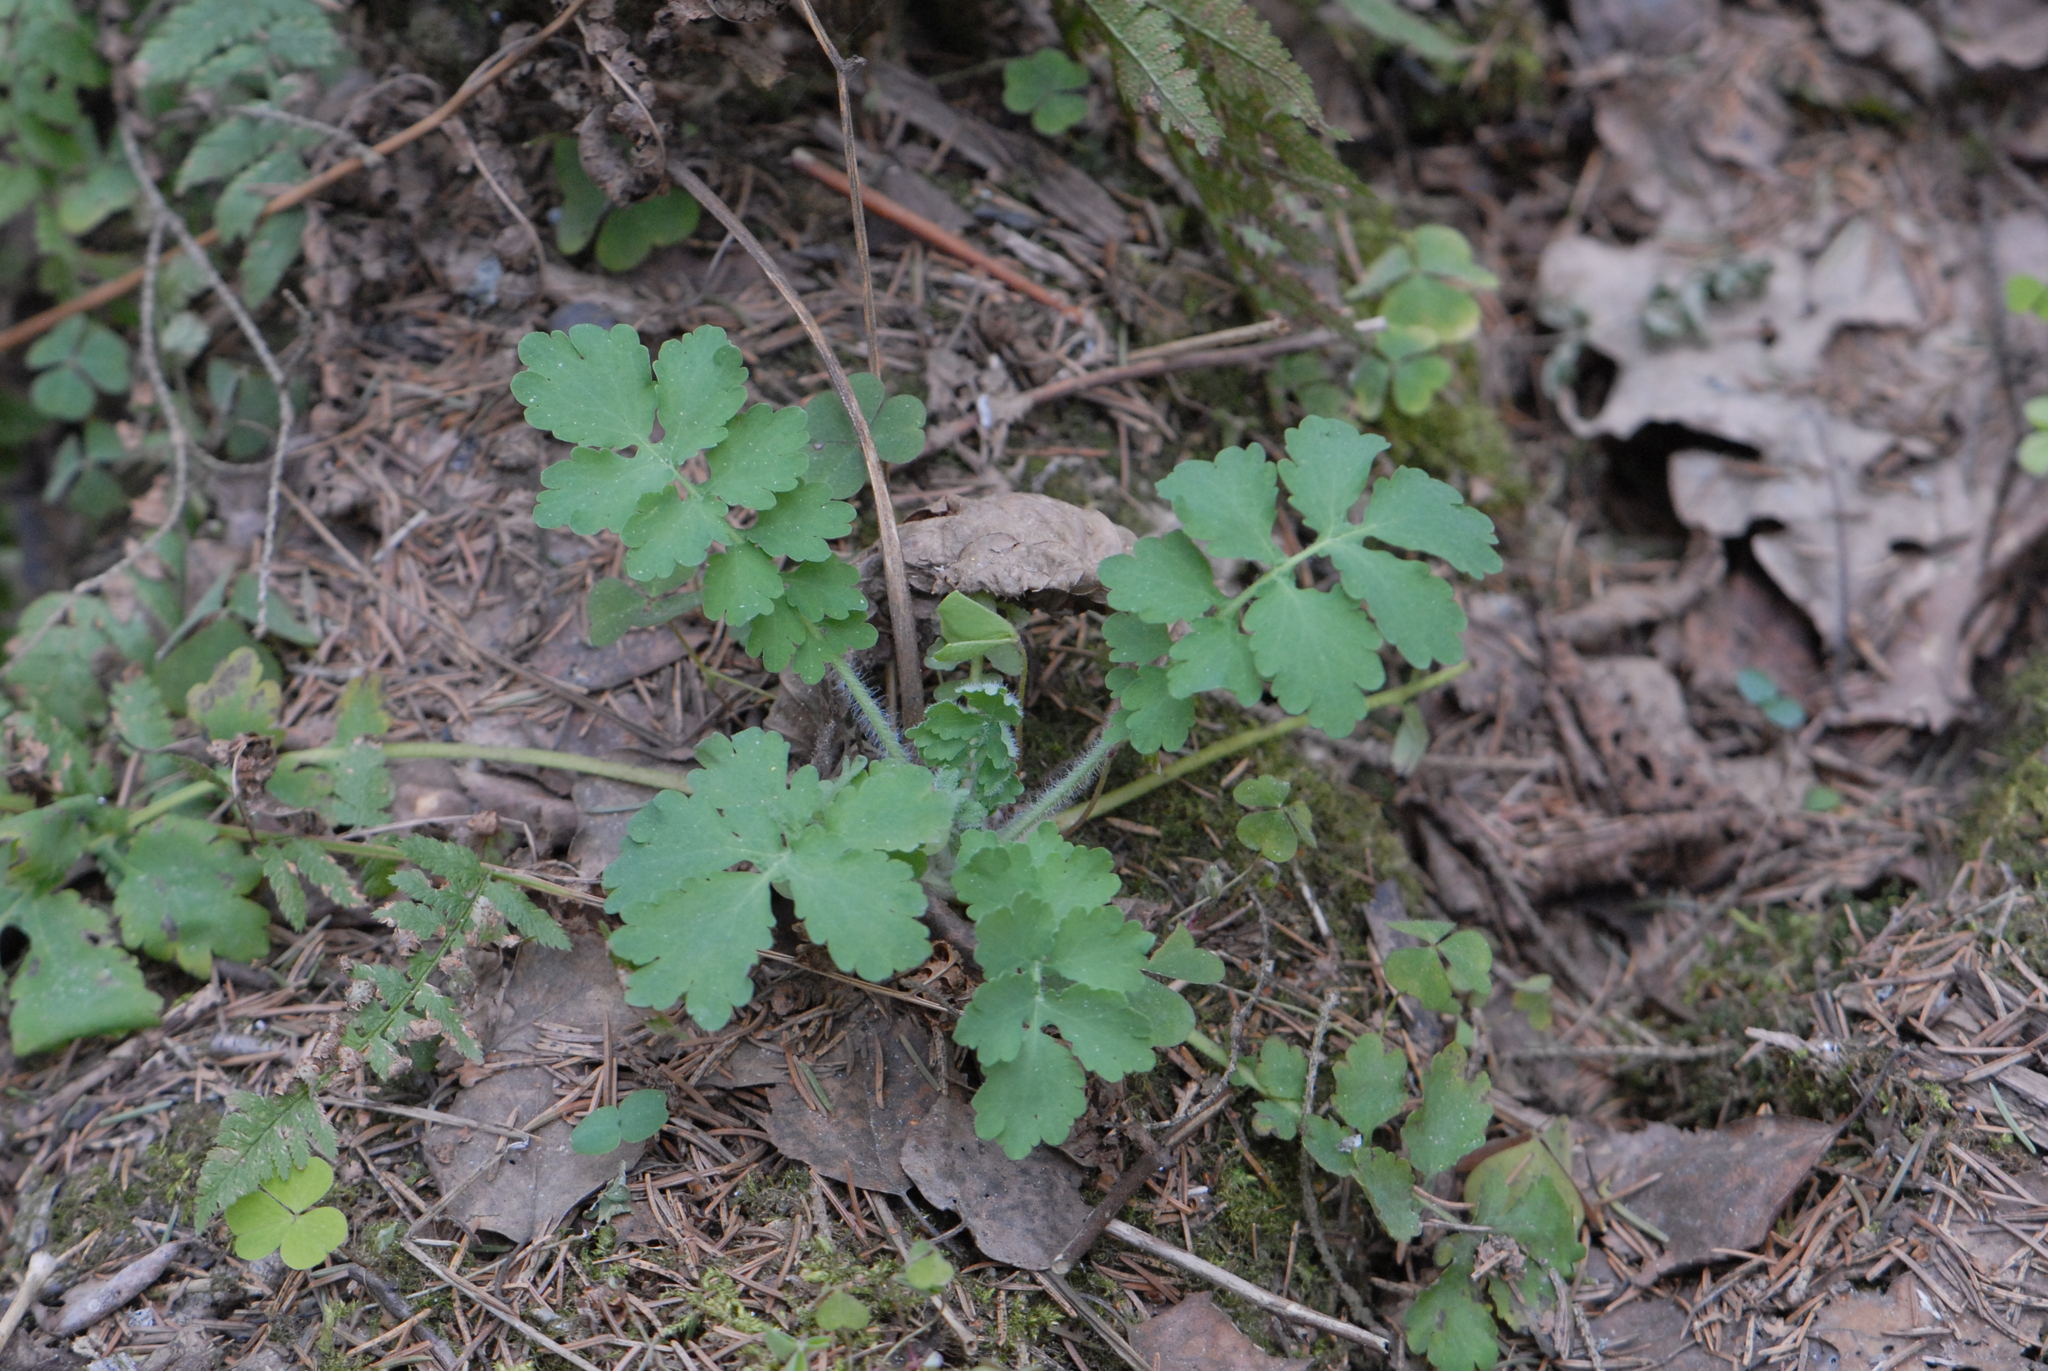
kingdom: Plantae
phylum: Tracheophyta
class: Magnoliopsida
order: Ranunculales
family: Papaveraceae
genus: Chelidonium
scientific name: Chelidonium majus
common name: Greater celandine
